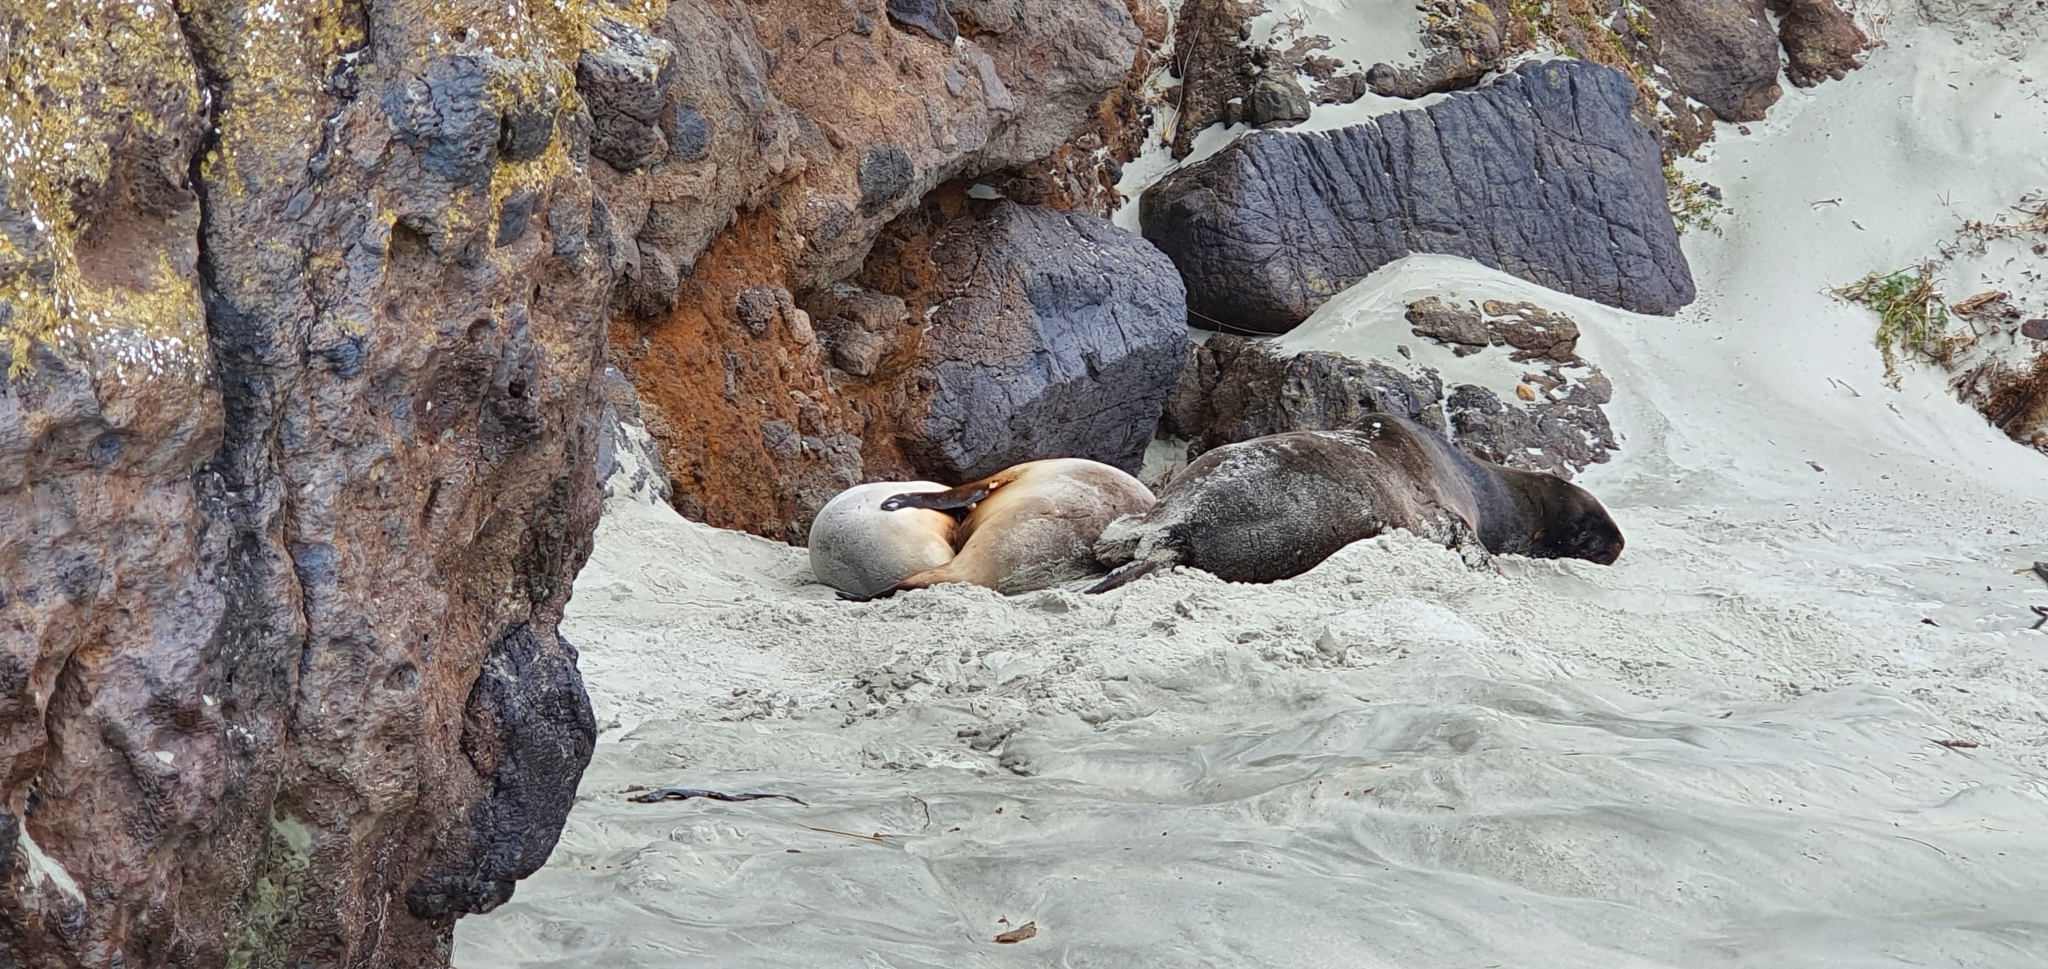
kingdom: Animalia
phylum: Chordata
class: Mammalia
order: Carnivora
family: Otariidae
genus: Phocarctos
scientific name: Phocarctos hookeri
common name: New zealand sea lion
